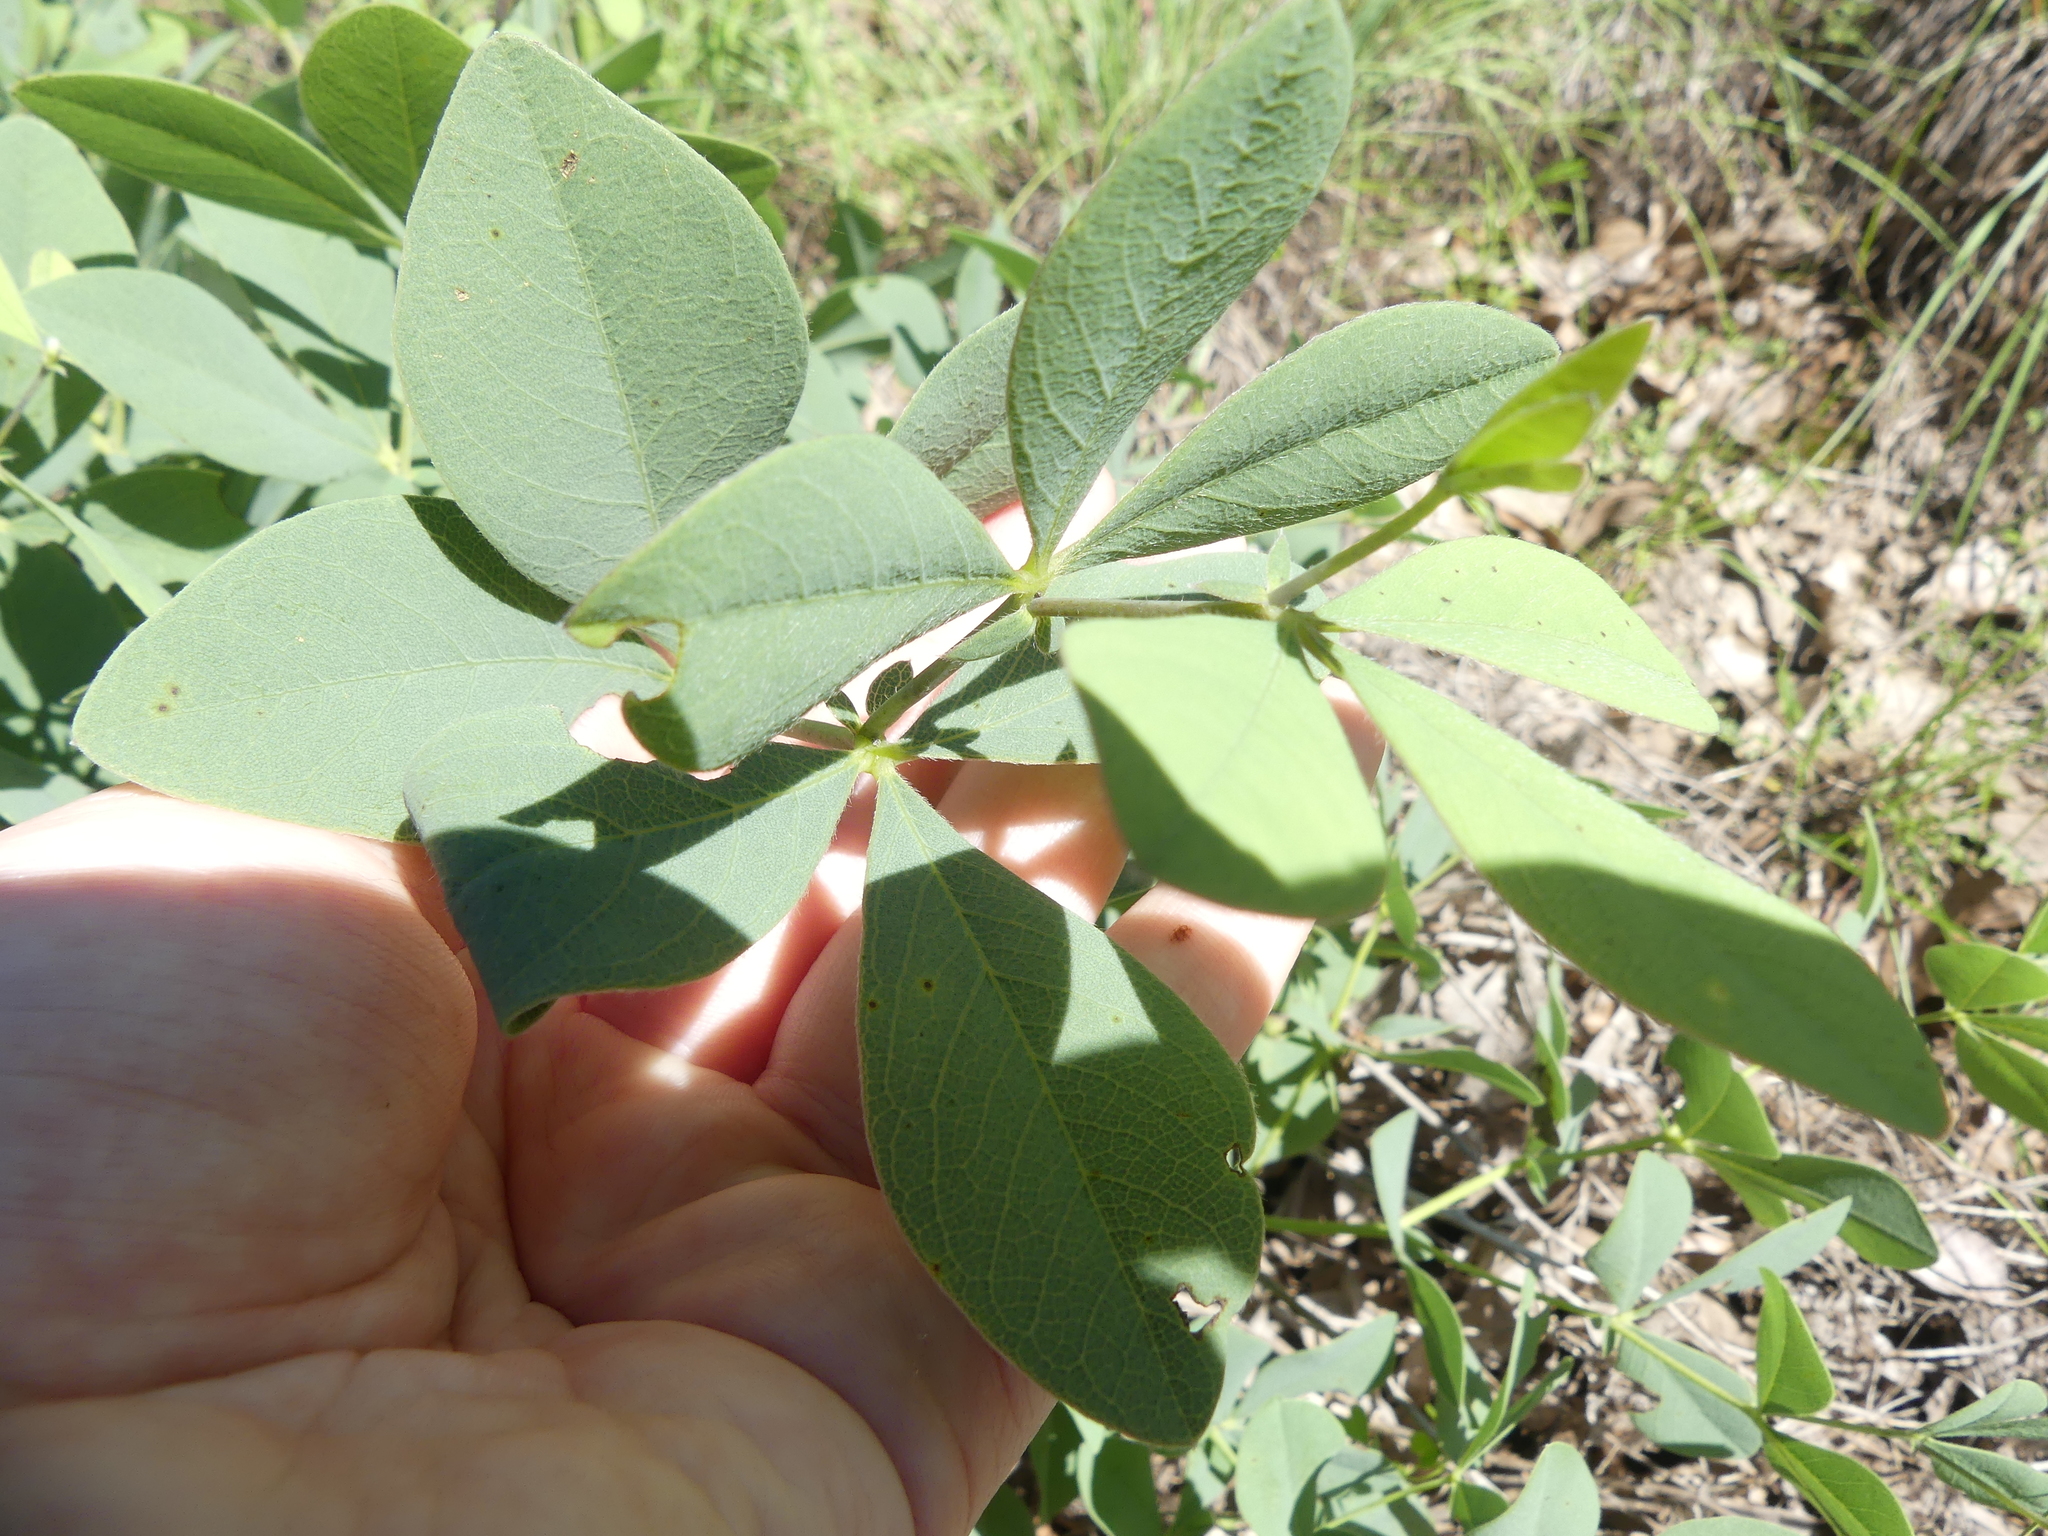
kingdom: Plantae
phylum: Tracheophyta
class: Magnoliopsida
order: Fabales
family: Fabaceae
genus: Baptisia
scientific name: Baptisia bracteata
